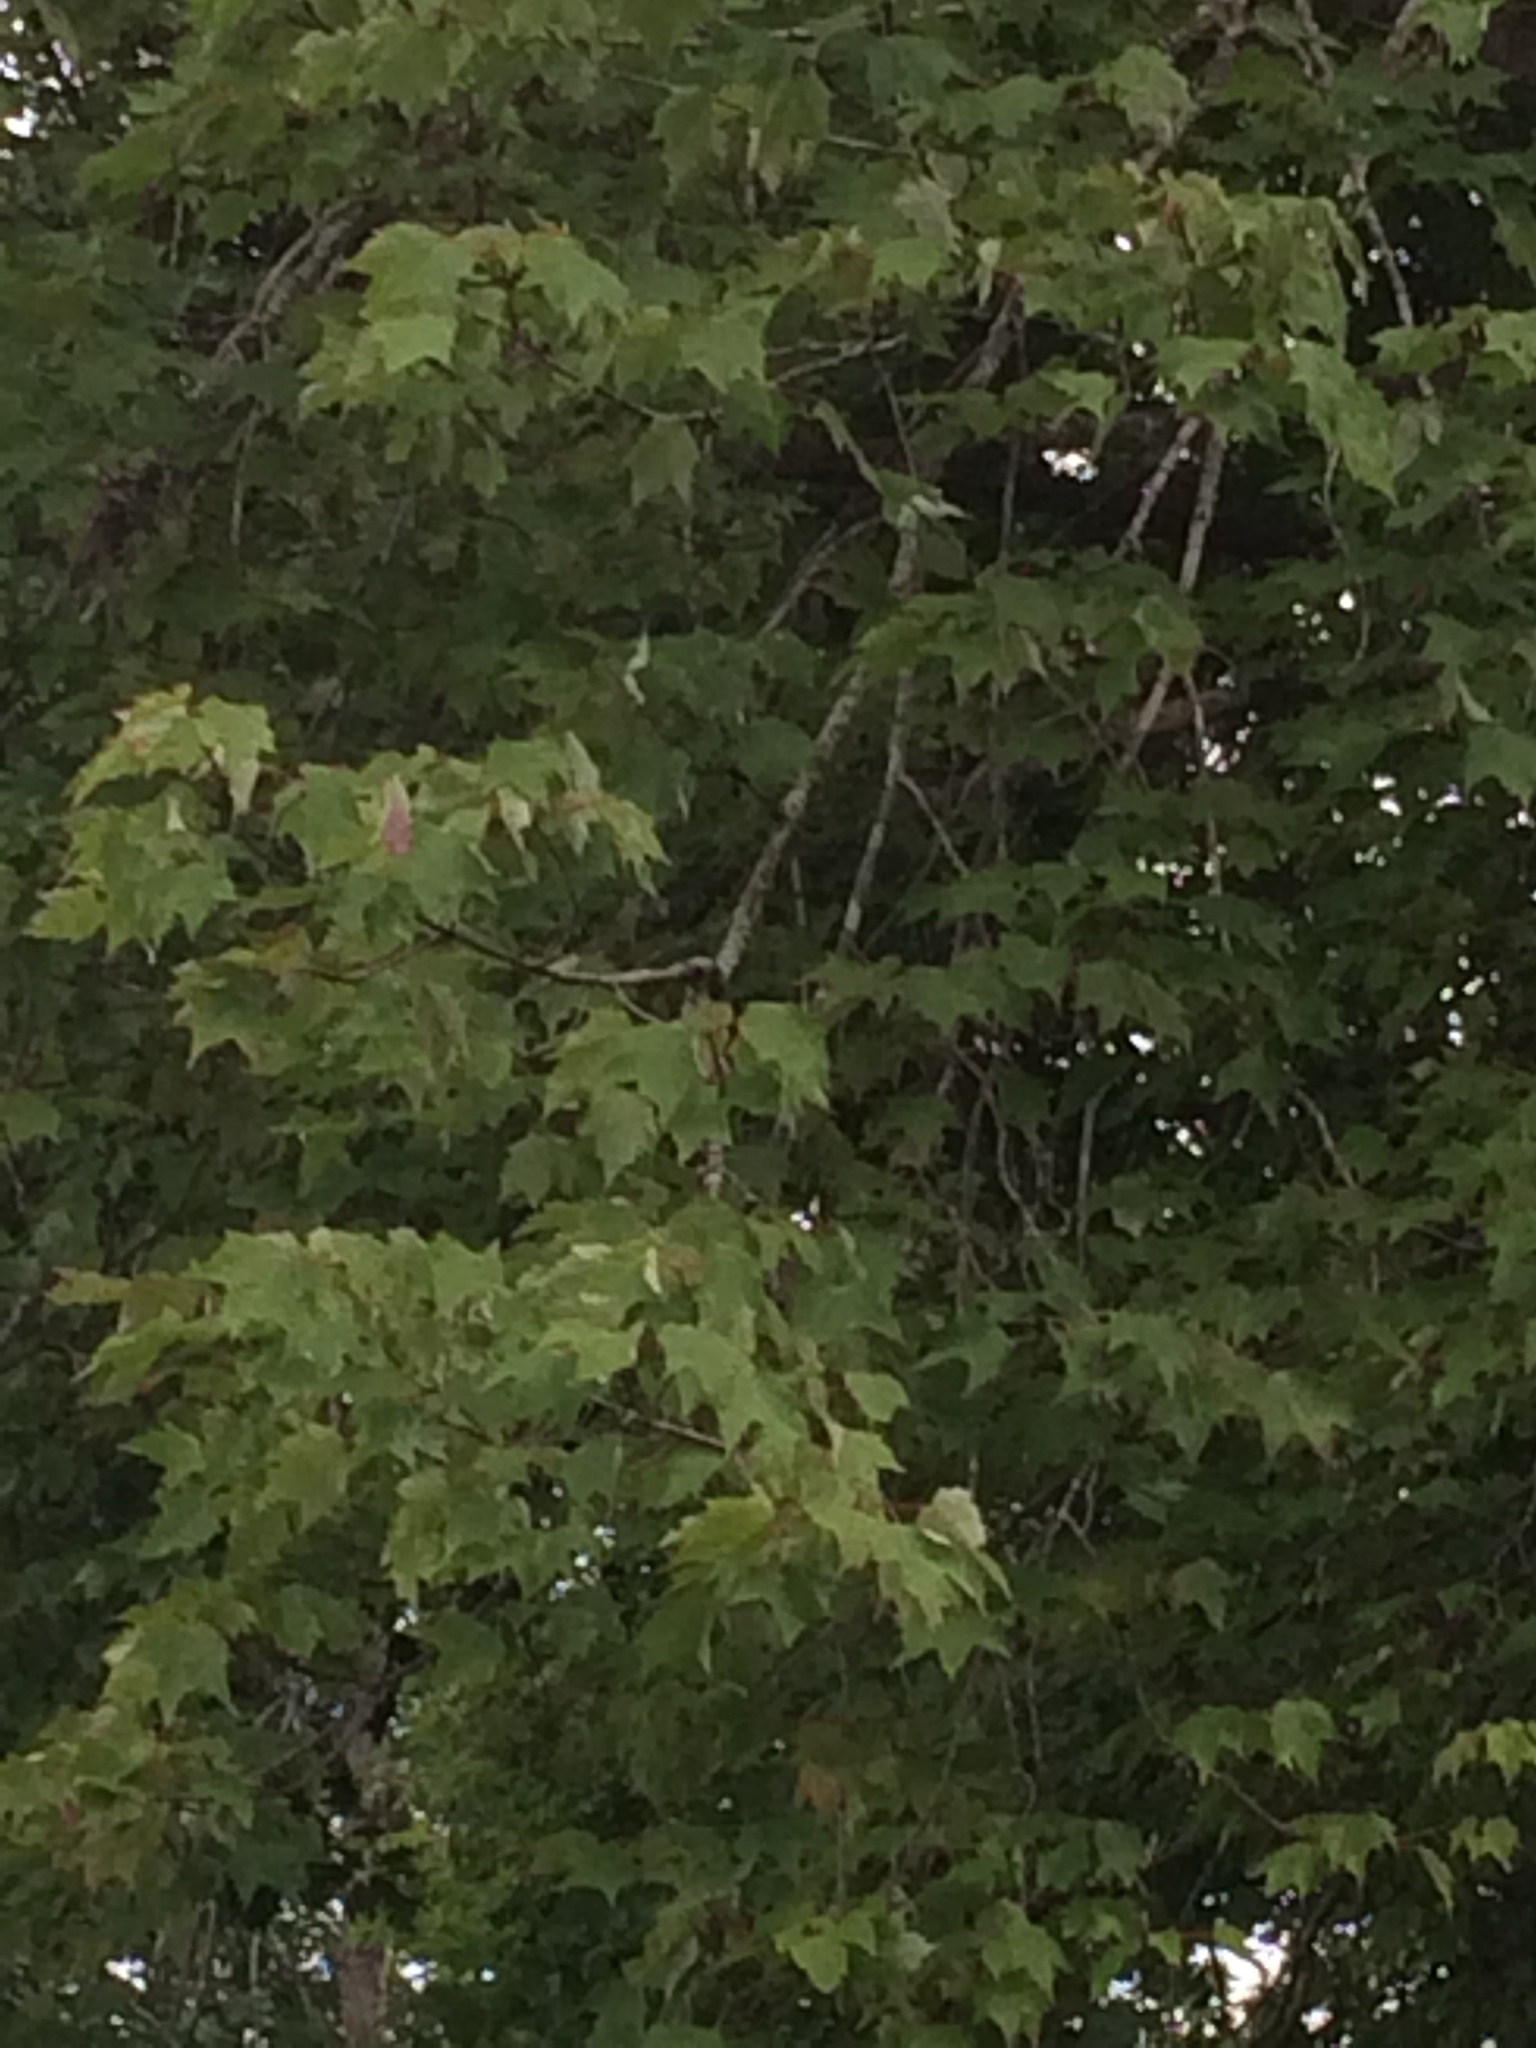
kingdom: Plantae
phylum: Tracheophyta
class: Magnoliopsida
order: Sapindales
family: Sapindaceae
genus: Acer
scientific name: Acer rubrum
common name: Red maple
